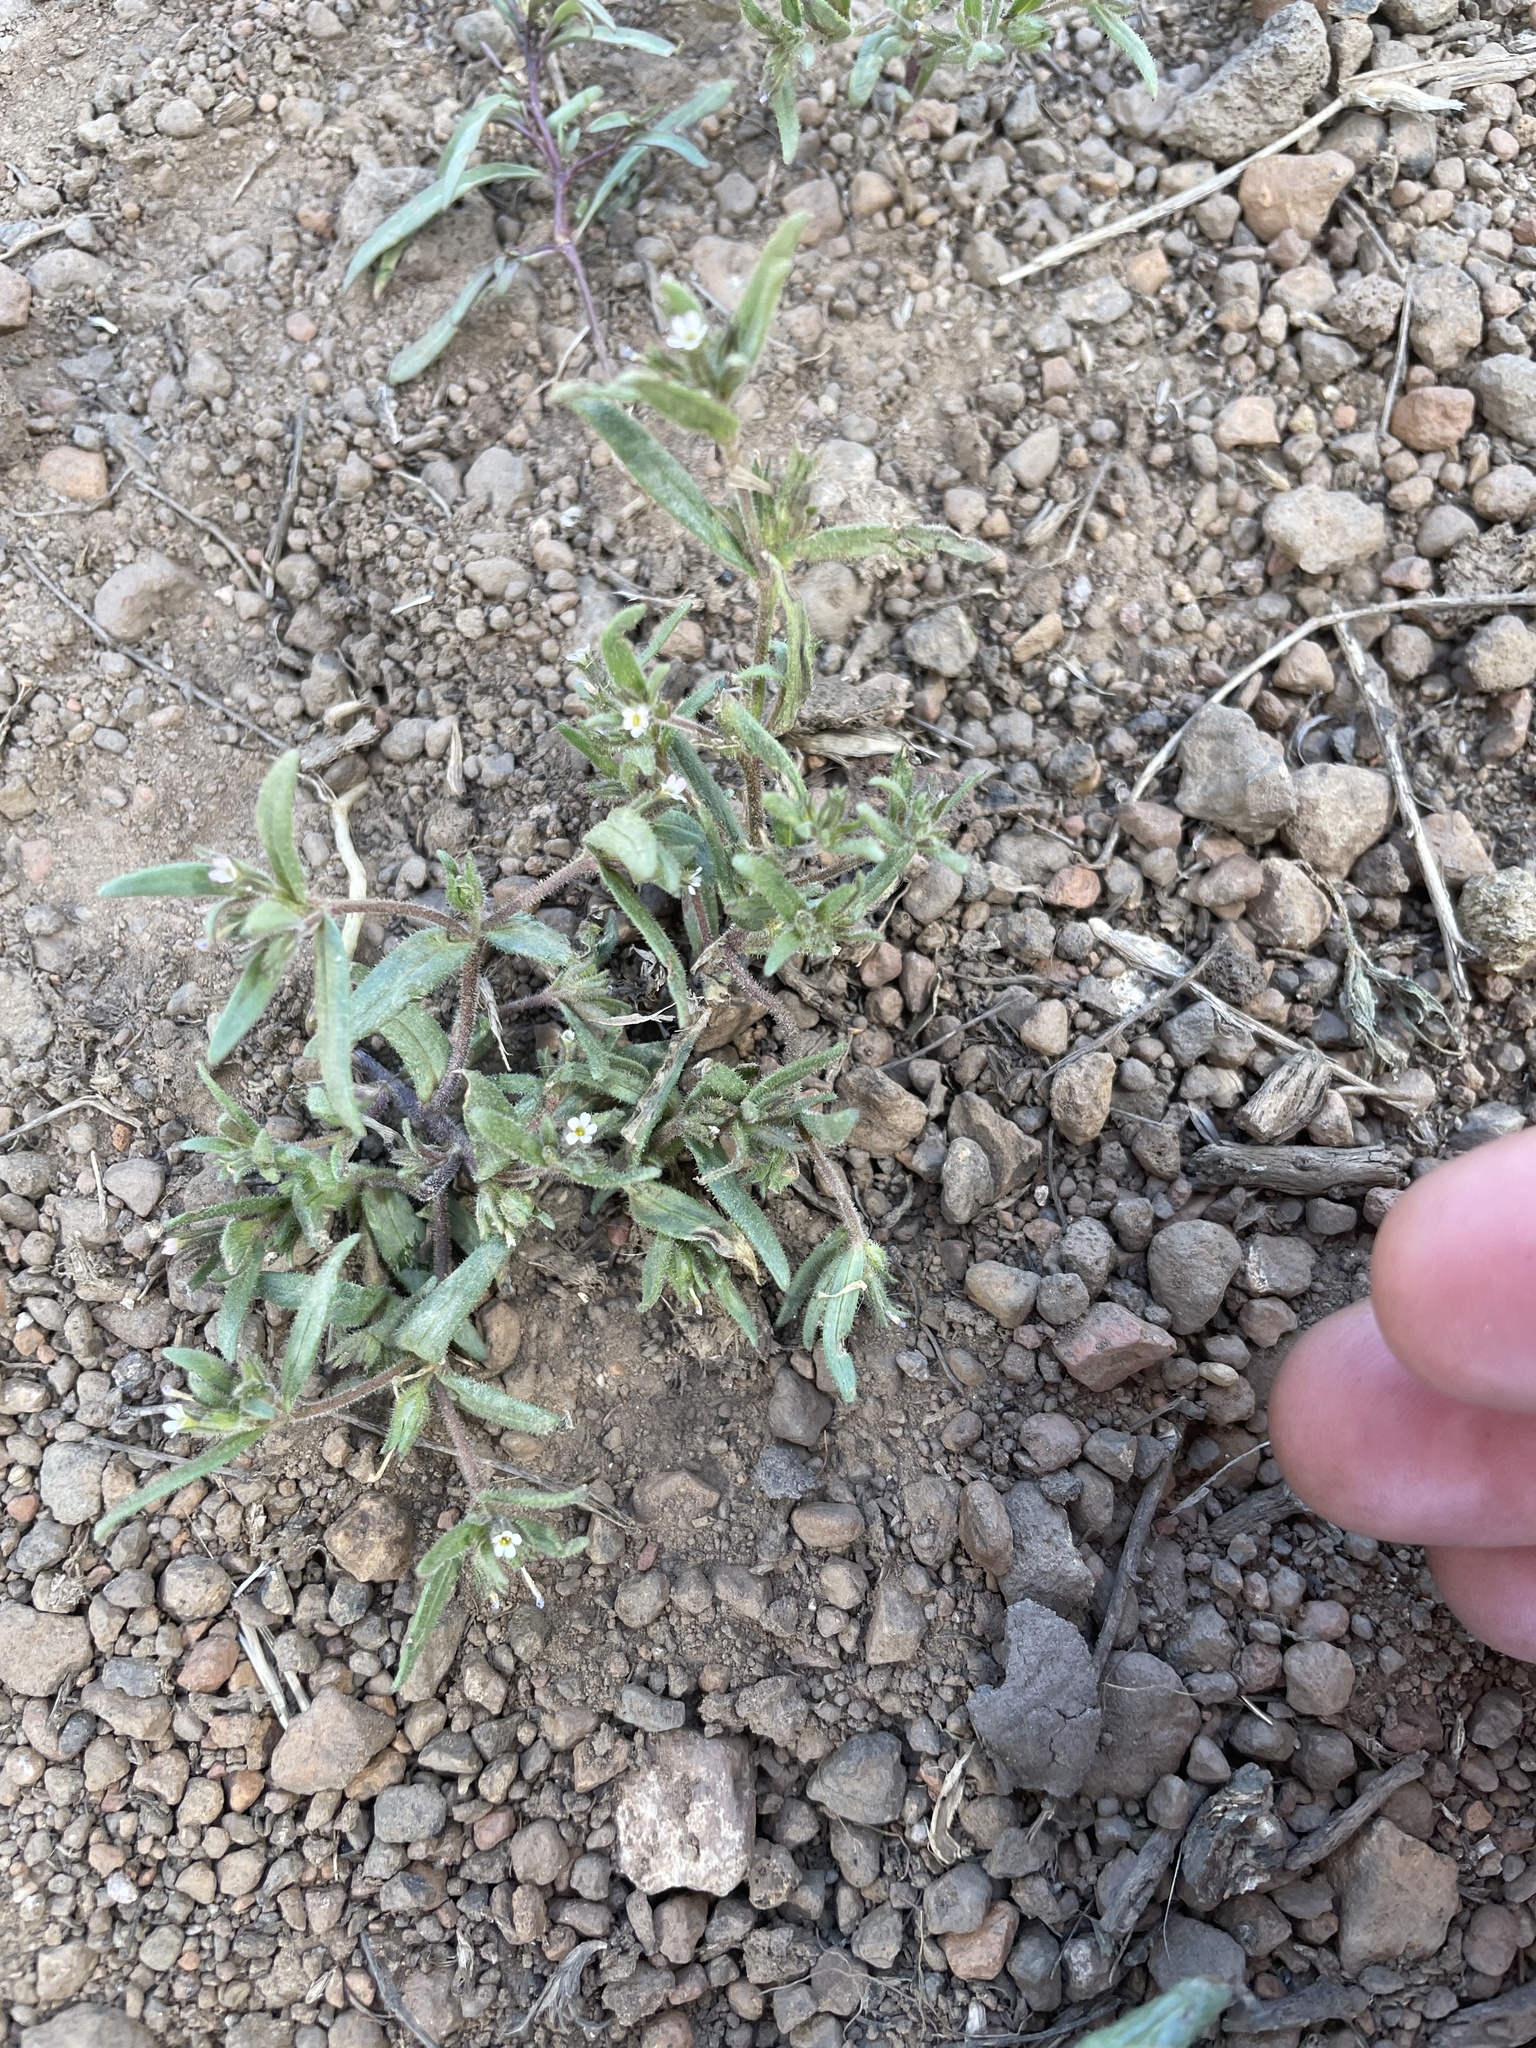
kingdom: Plantae
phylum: Tracheophyta
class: Magnoliopsida
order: Ericales
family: Polemoniaceae
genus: Phlox
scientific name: Phlox gracilis
